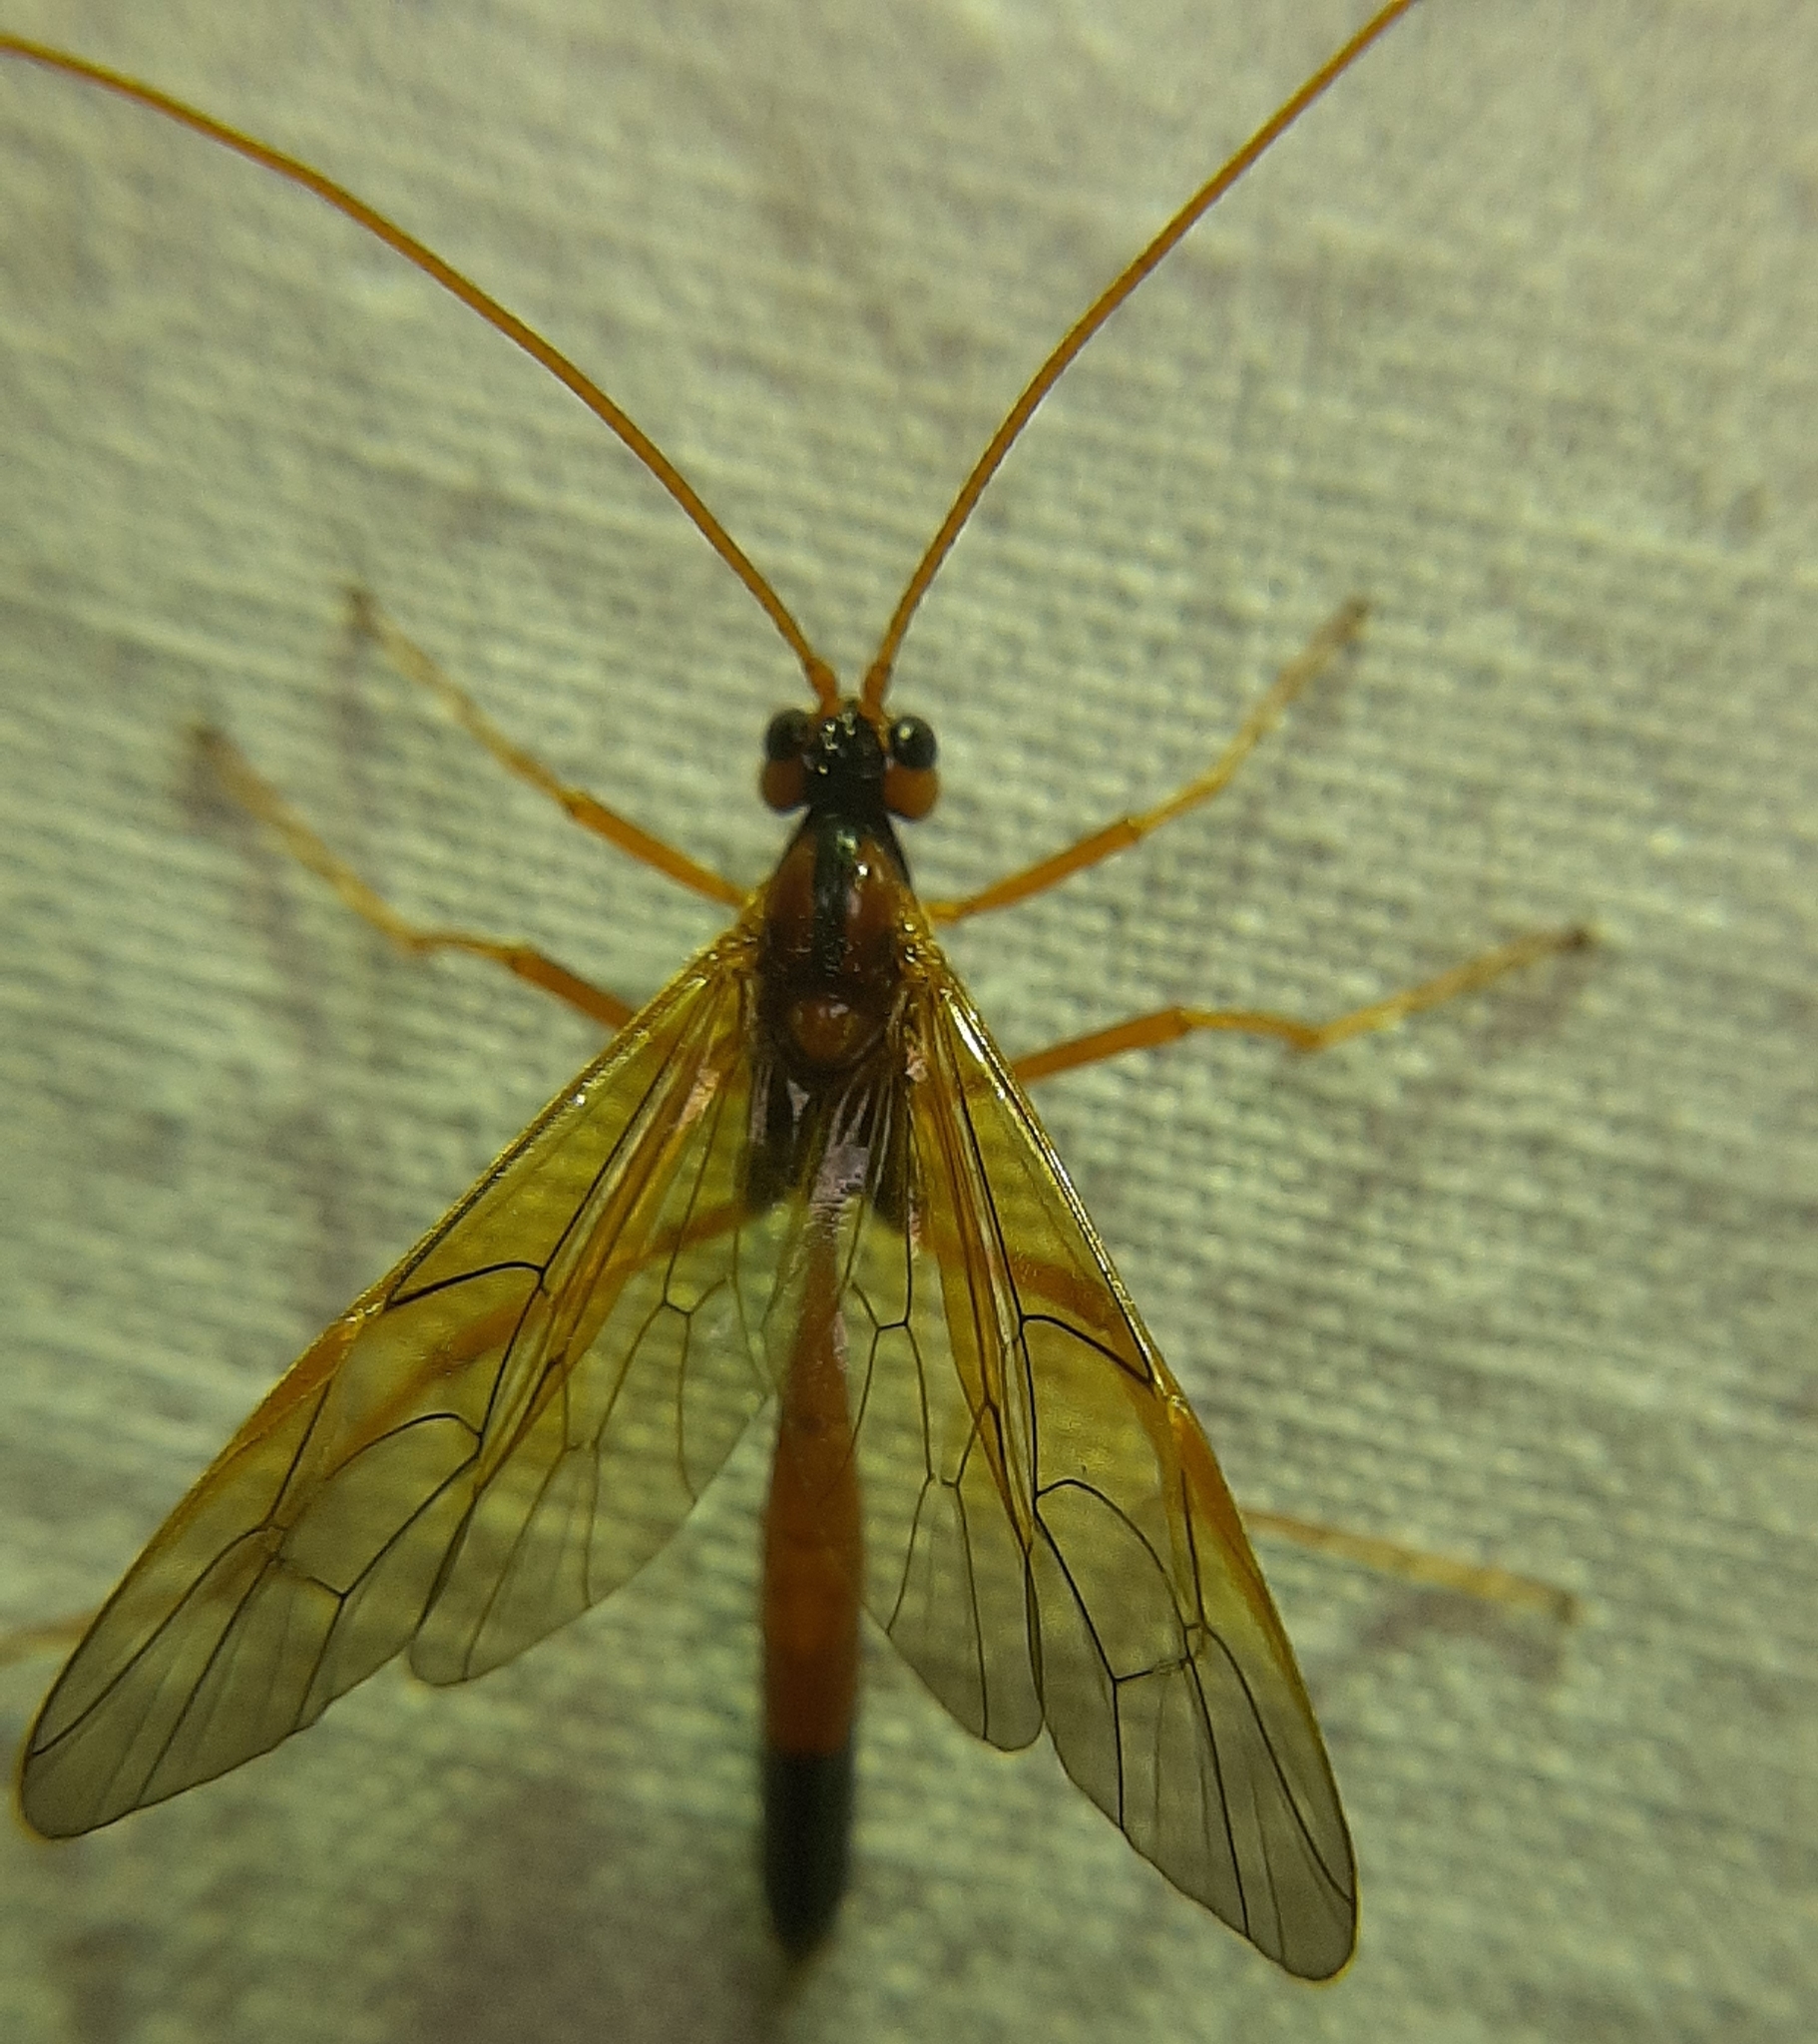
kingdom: Animalia
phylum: Arthropoda
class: Insecta
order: Hymenoptera
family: Ichneumonidae
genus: Opheltes
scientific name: Opheltes glaucopterus
